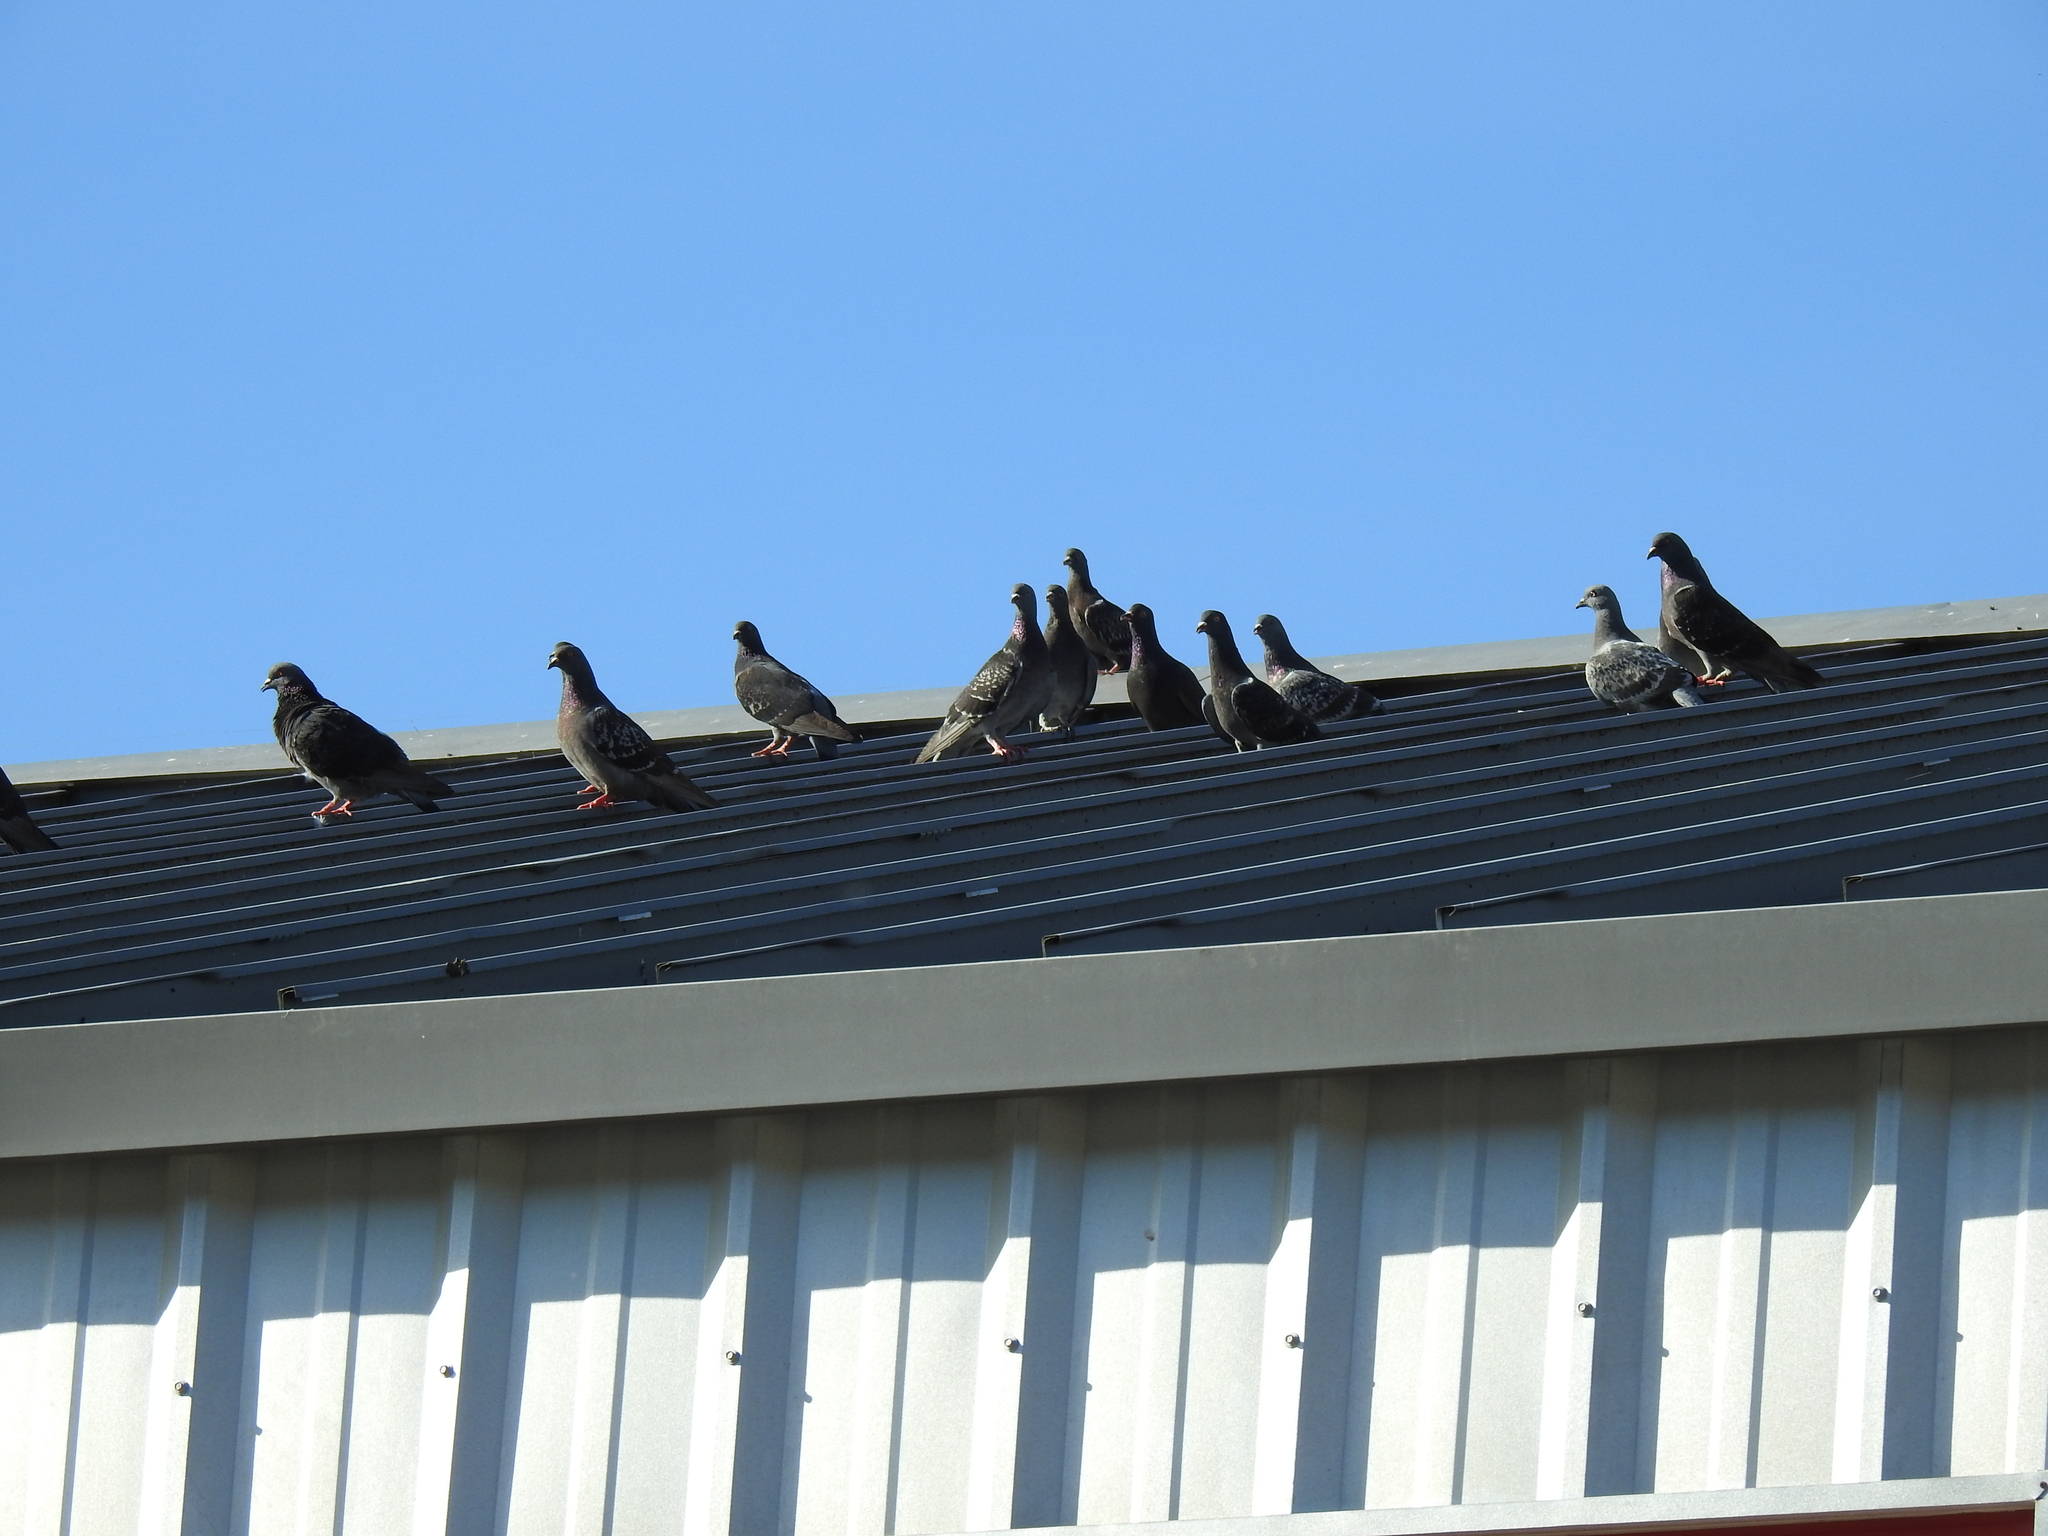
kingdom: Animalia
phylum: Chordata
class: Aves
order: Columbiformes
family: Columbidae
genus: Columba
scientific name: Columba livia
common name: Rock pigeon
